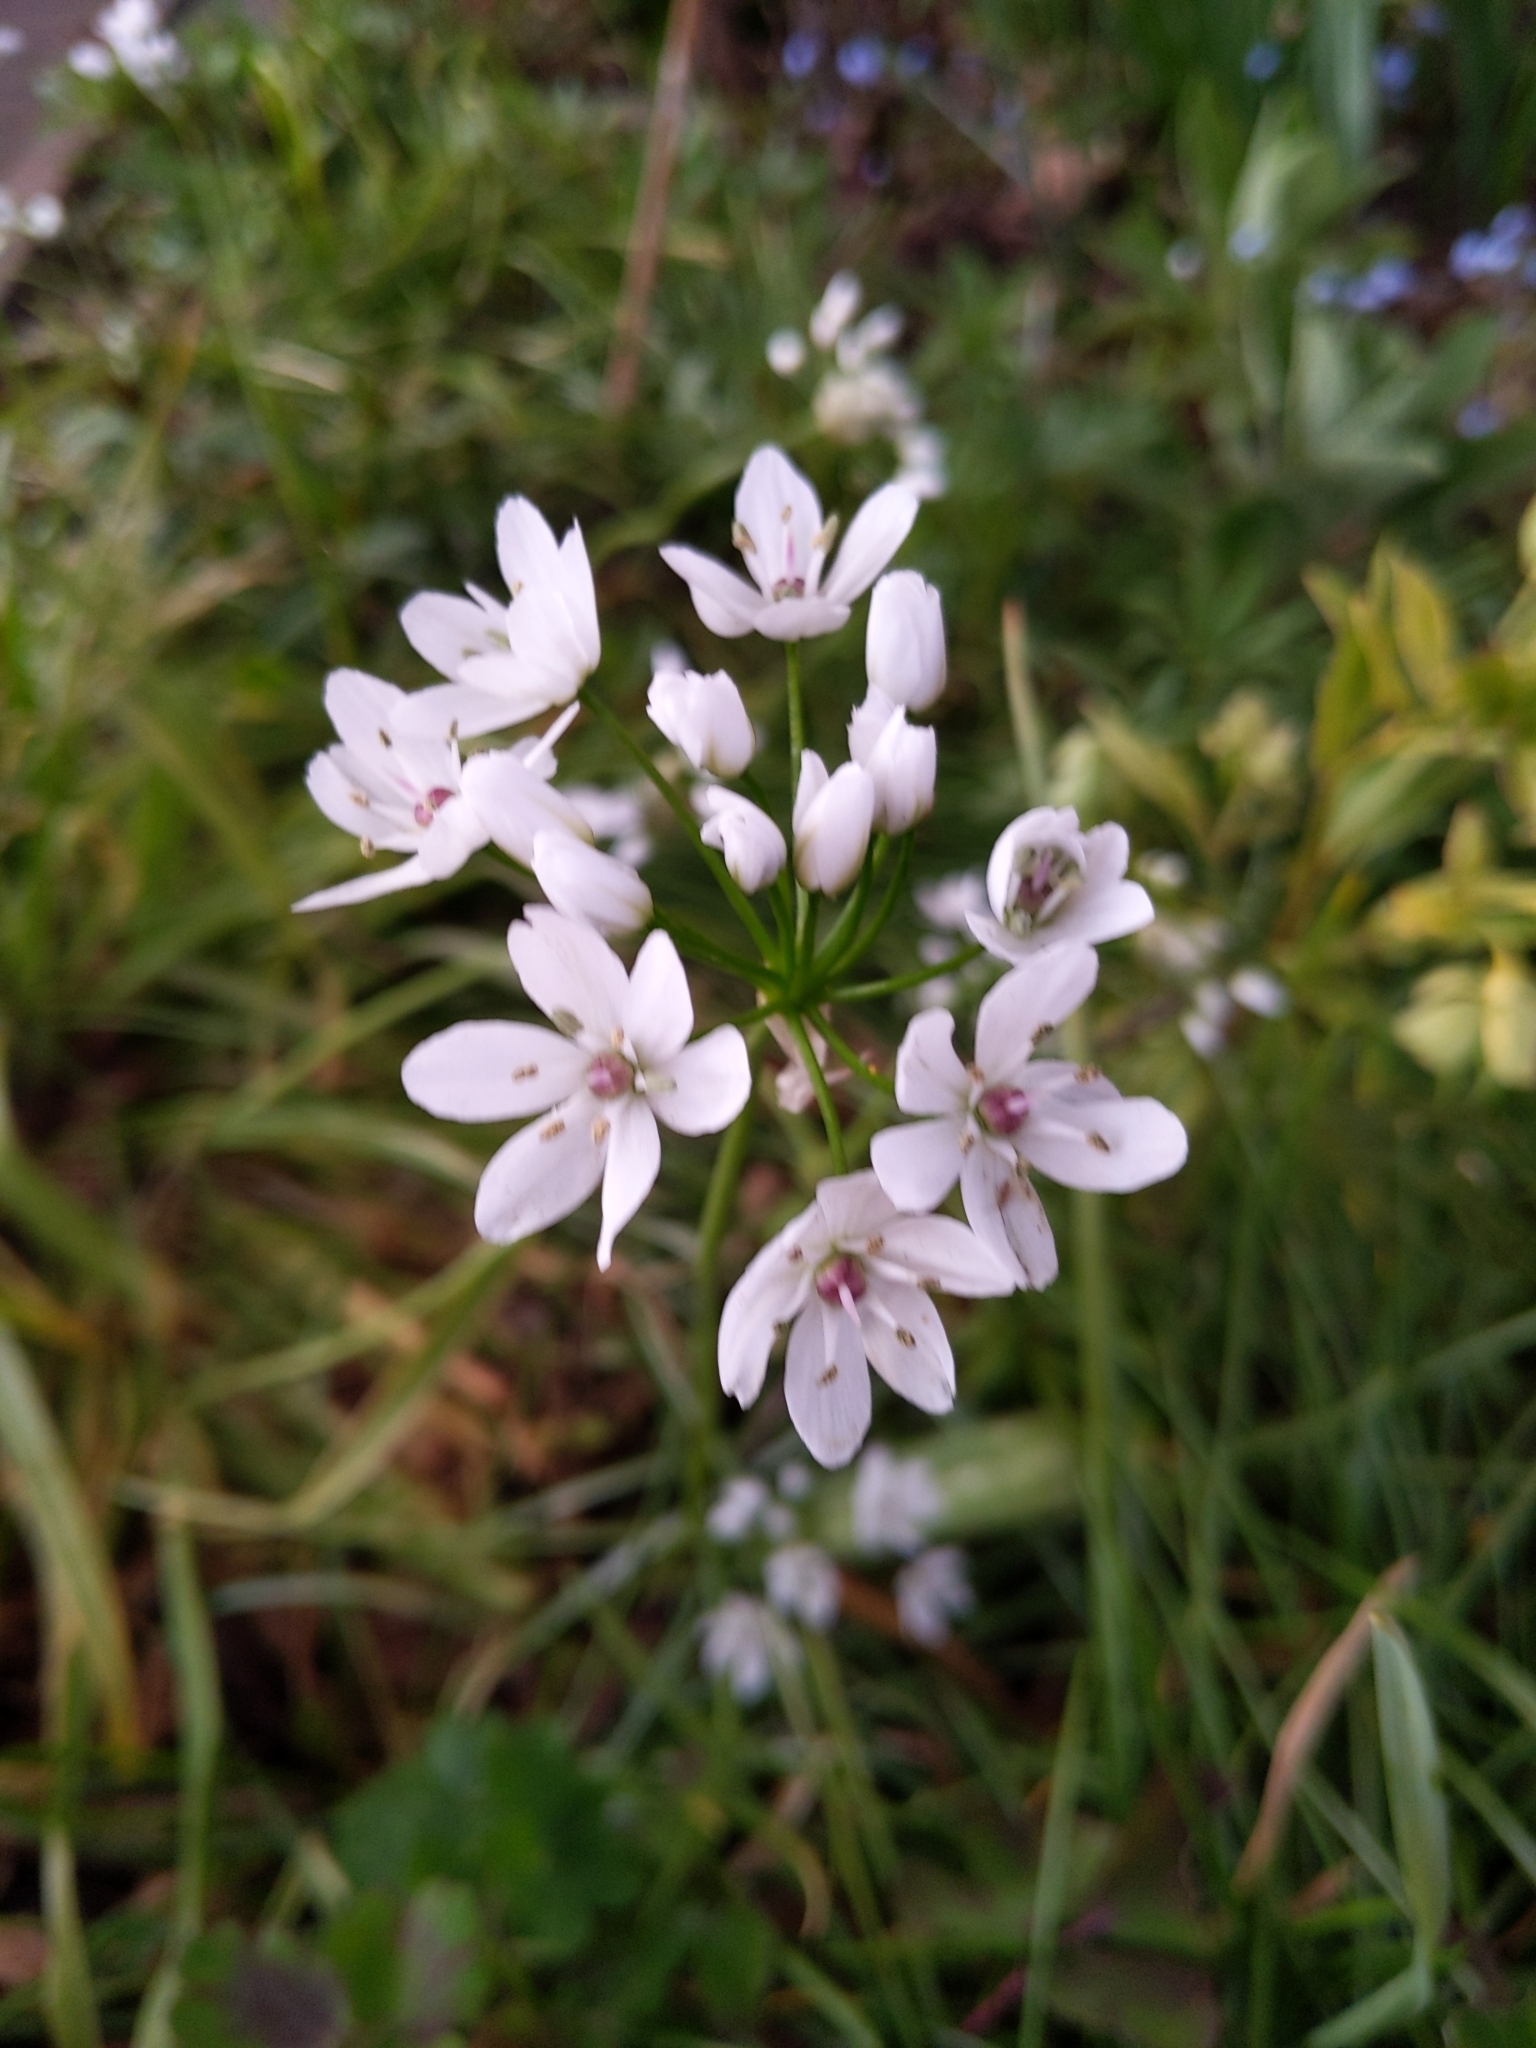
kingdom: Plantae
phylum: Tracheophyta
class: Liliopsida
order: Asparagales
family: Amaryllidaceae
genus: Allium
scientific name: Allium neapolitanum
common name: Neapolitan garlic
